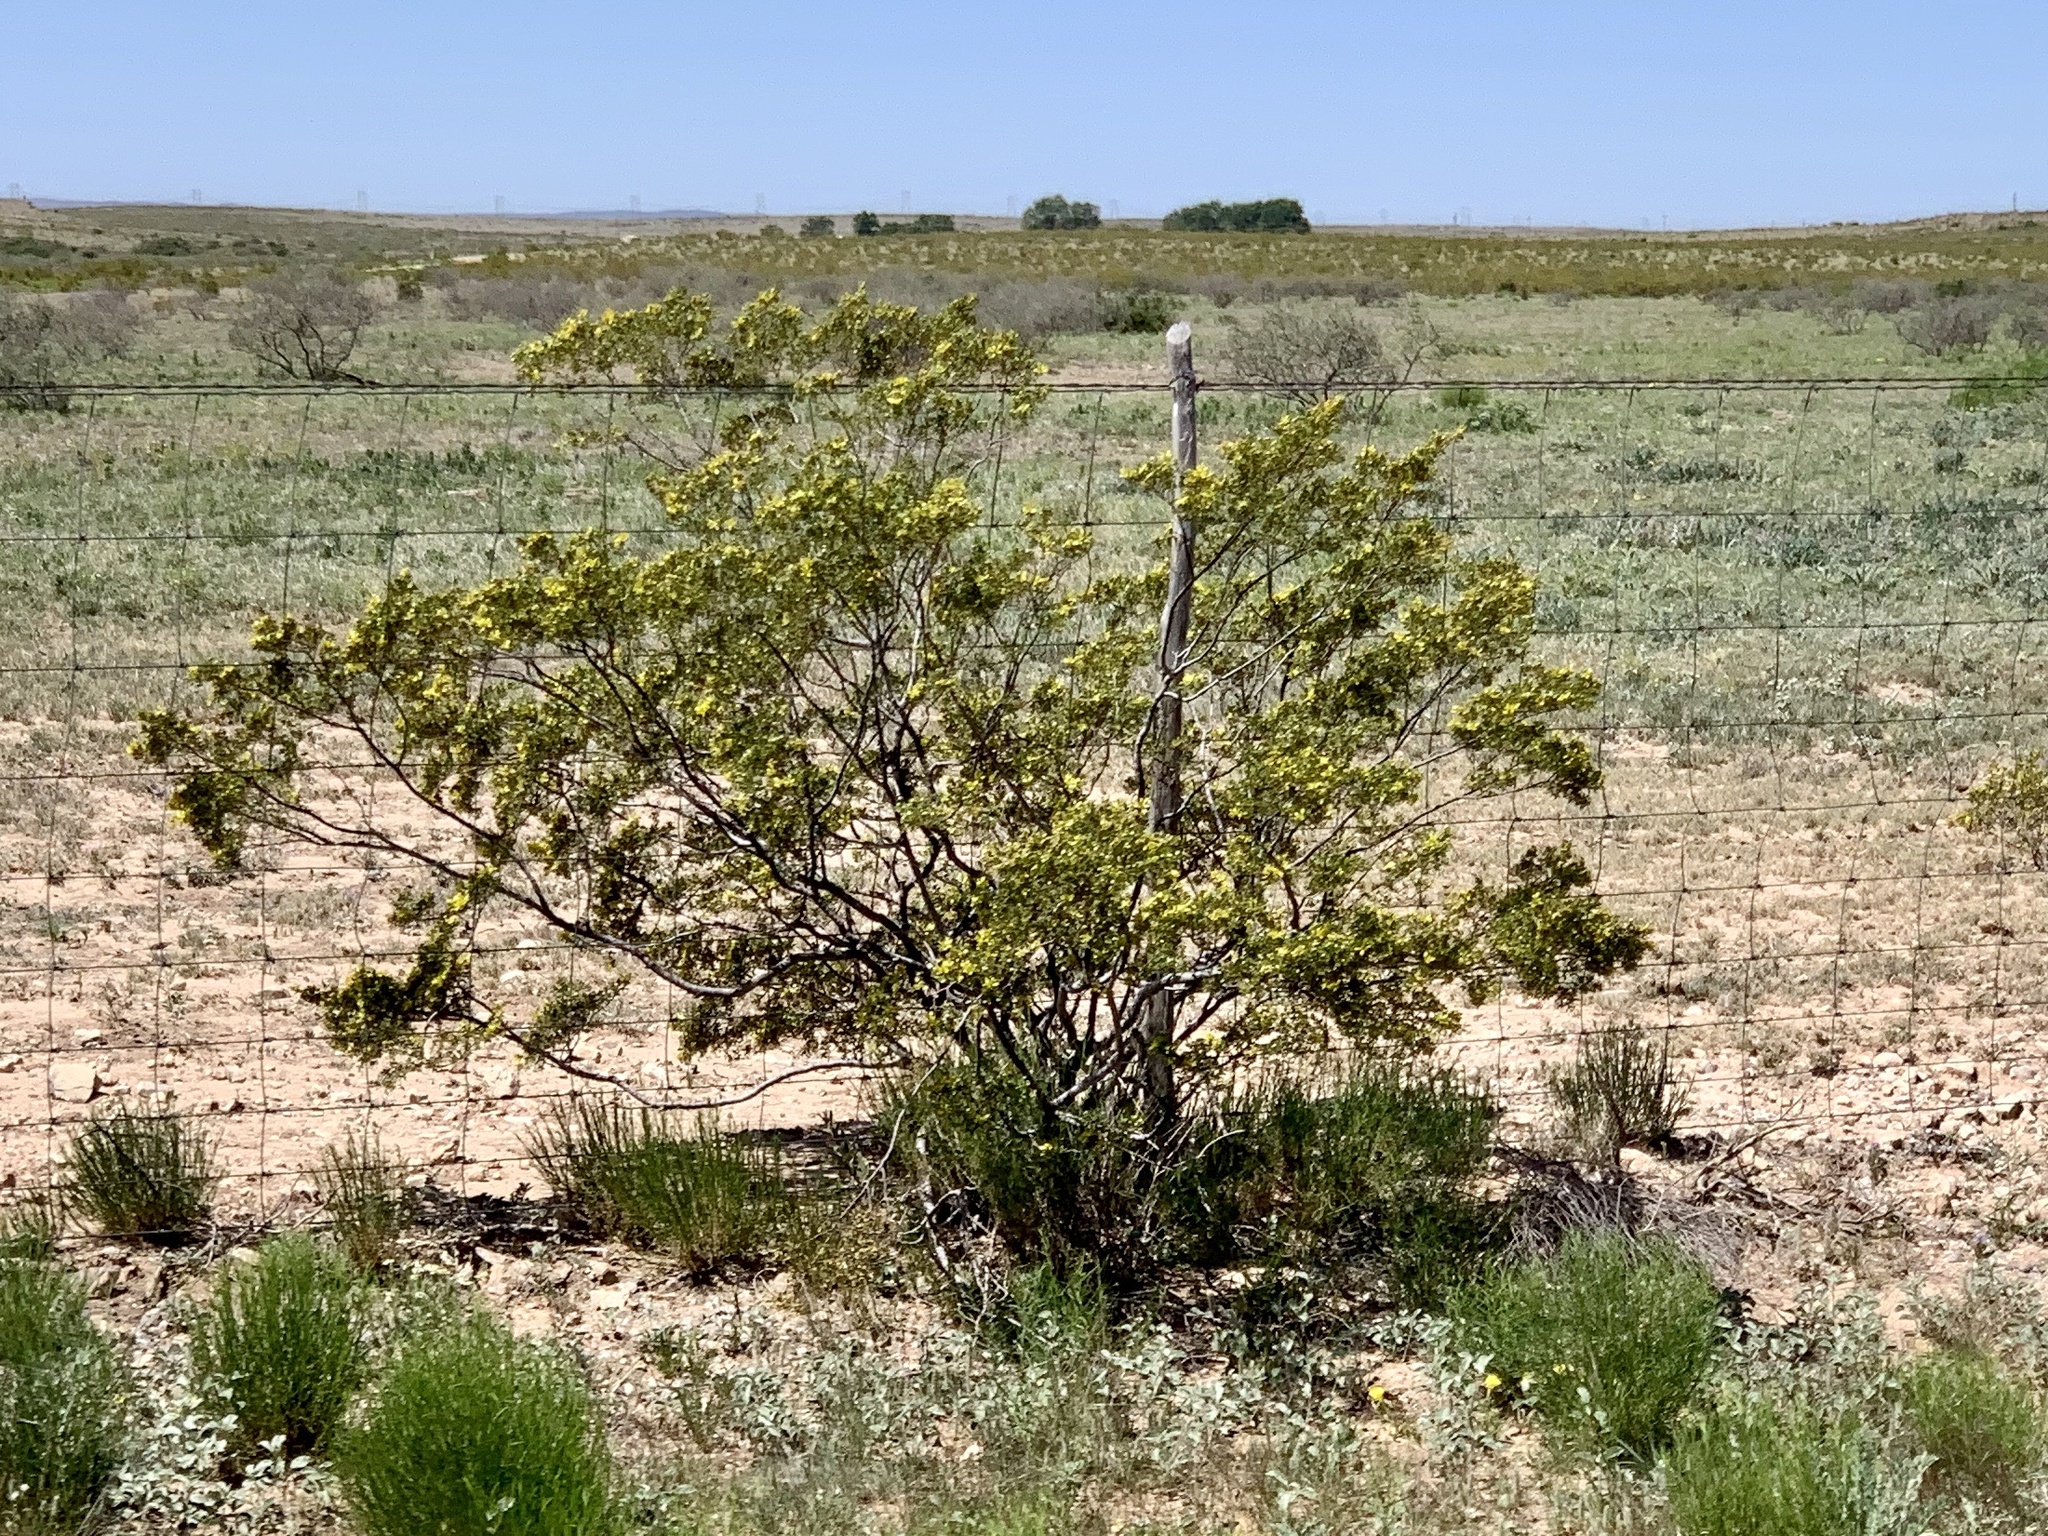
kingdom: Plantae
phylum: Tracheophyta
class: Magnoliopsida
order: Zygophyllales
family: Zygophyllaceae
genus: Larrea
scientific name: Larrea tridentata
